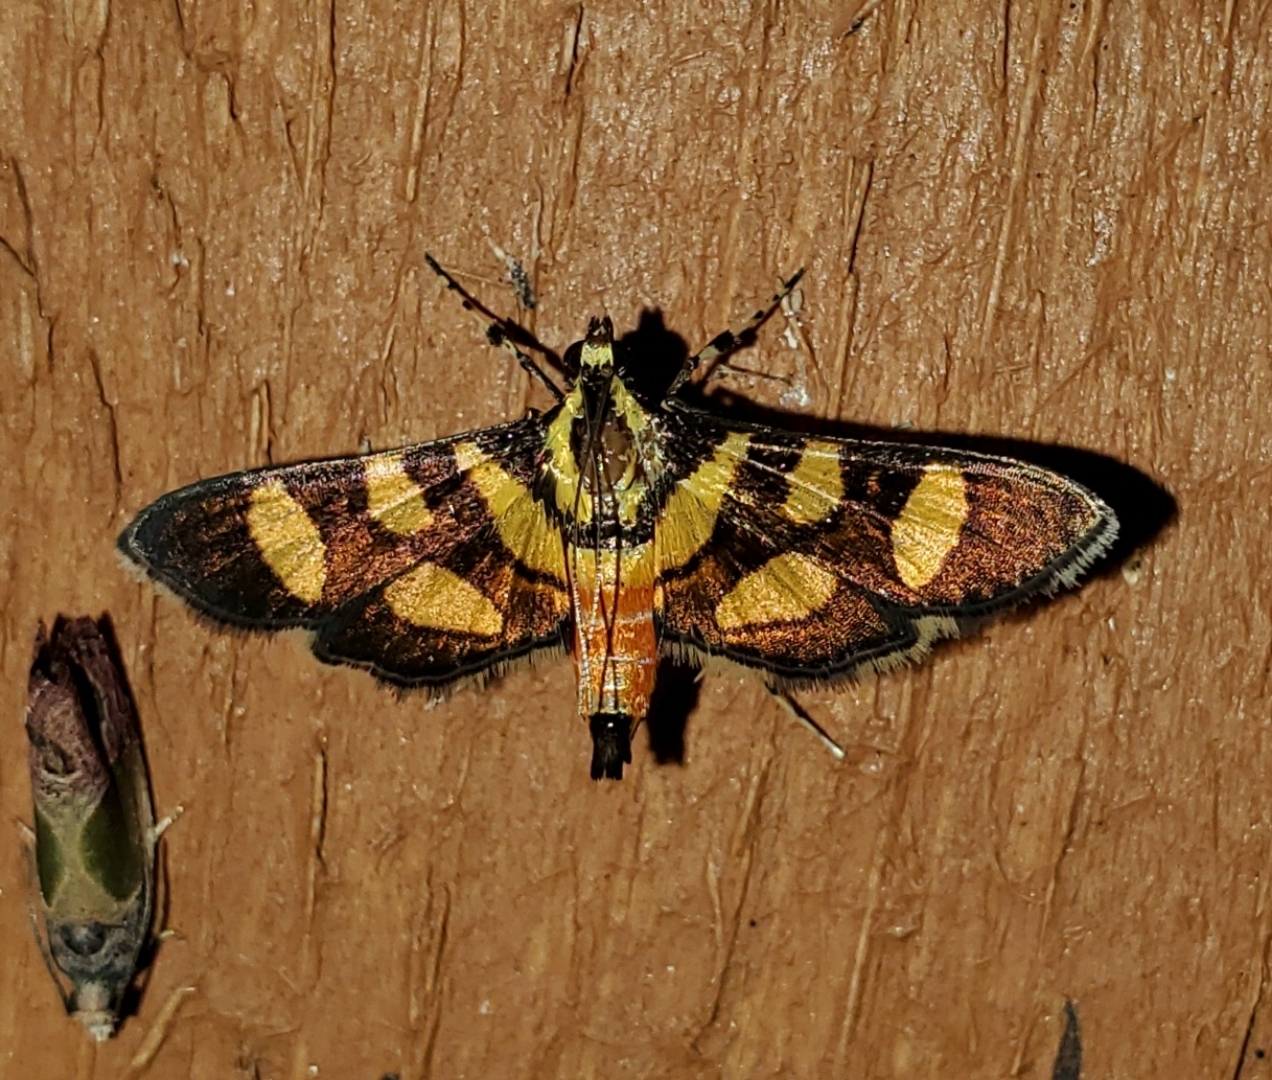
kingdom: Animalia
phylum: Arthropoda
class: Insecta
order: Lepidoptera
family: Crambidae
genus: Syngamia
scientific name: Syngamia florella
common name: Orange-spotted flower moth
